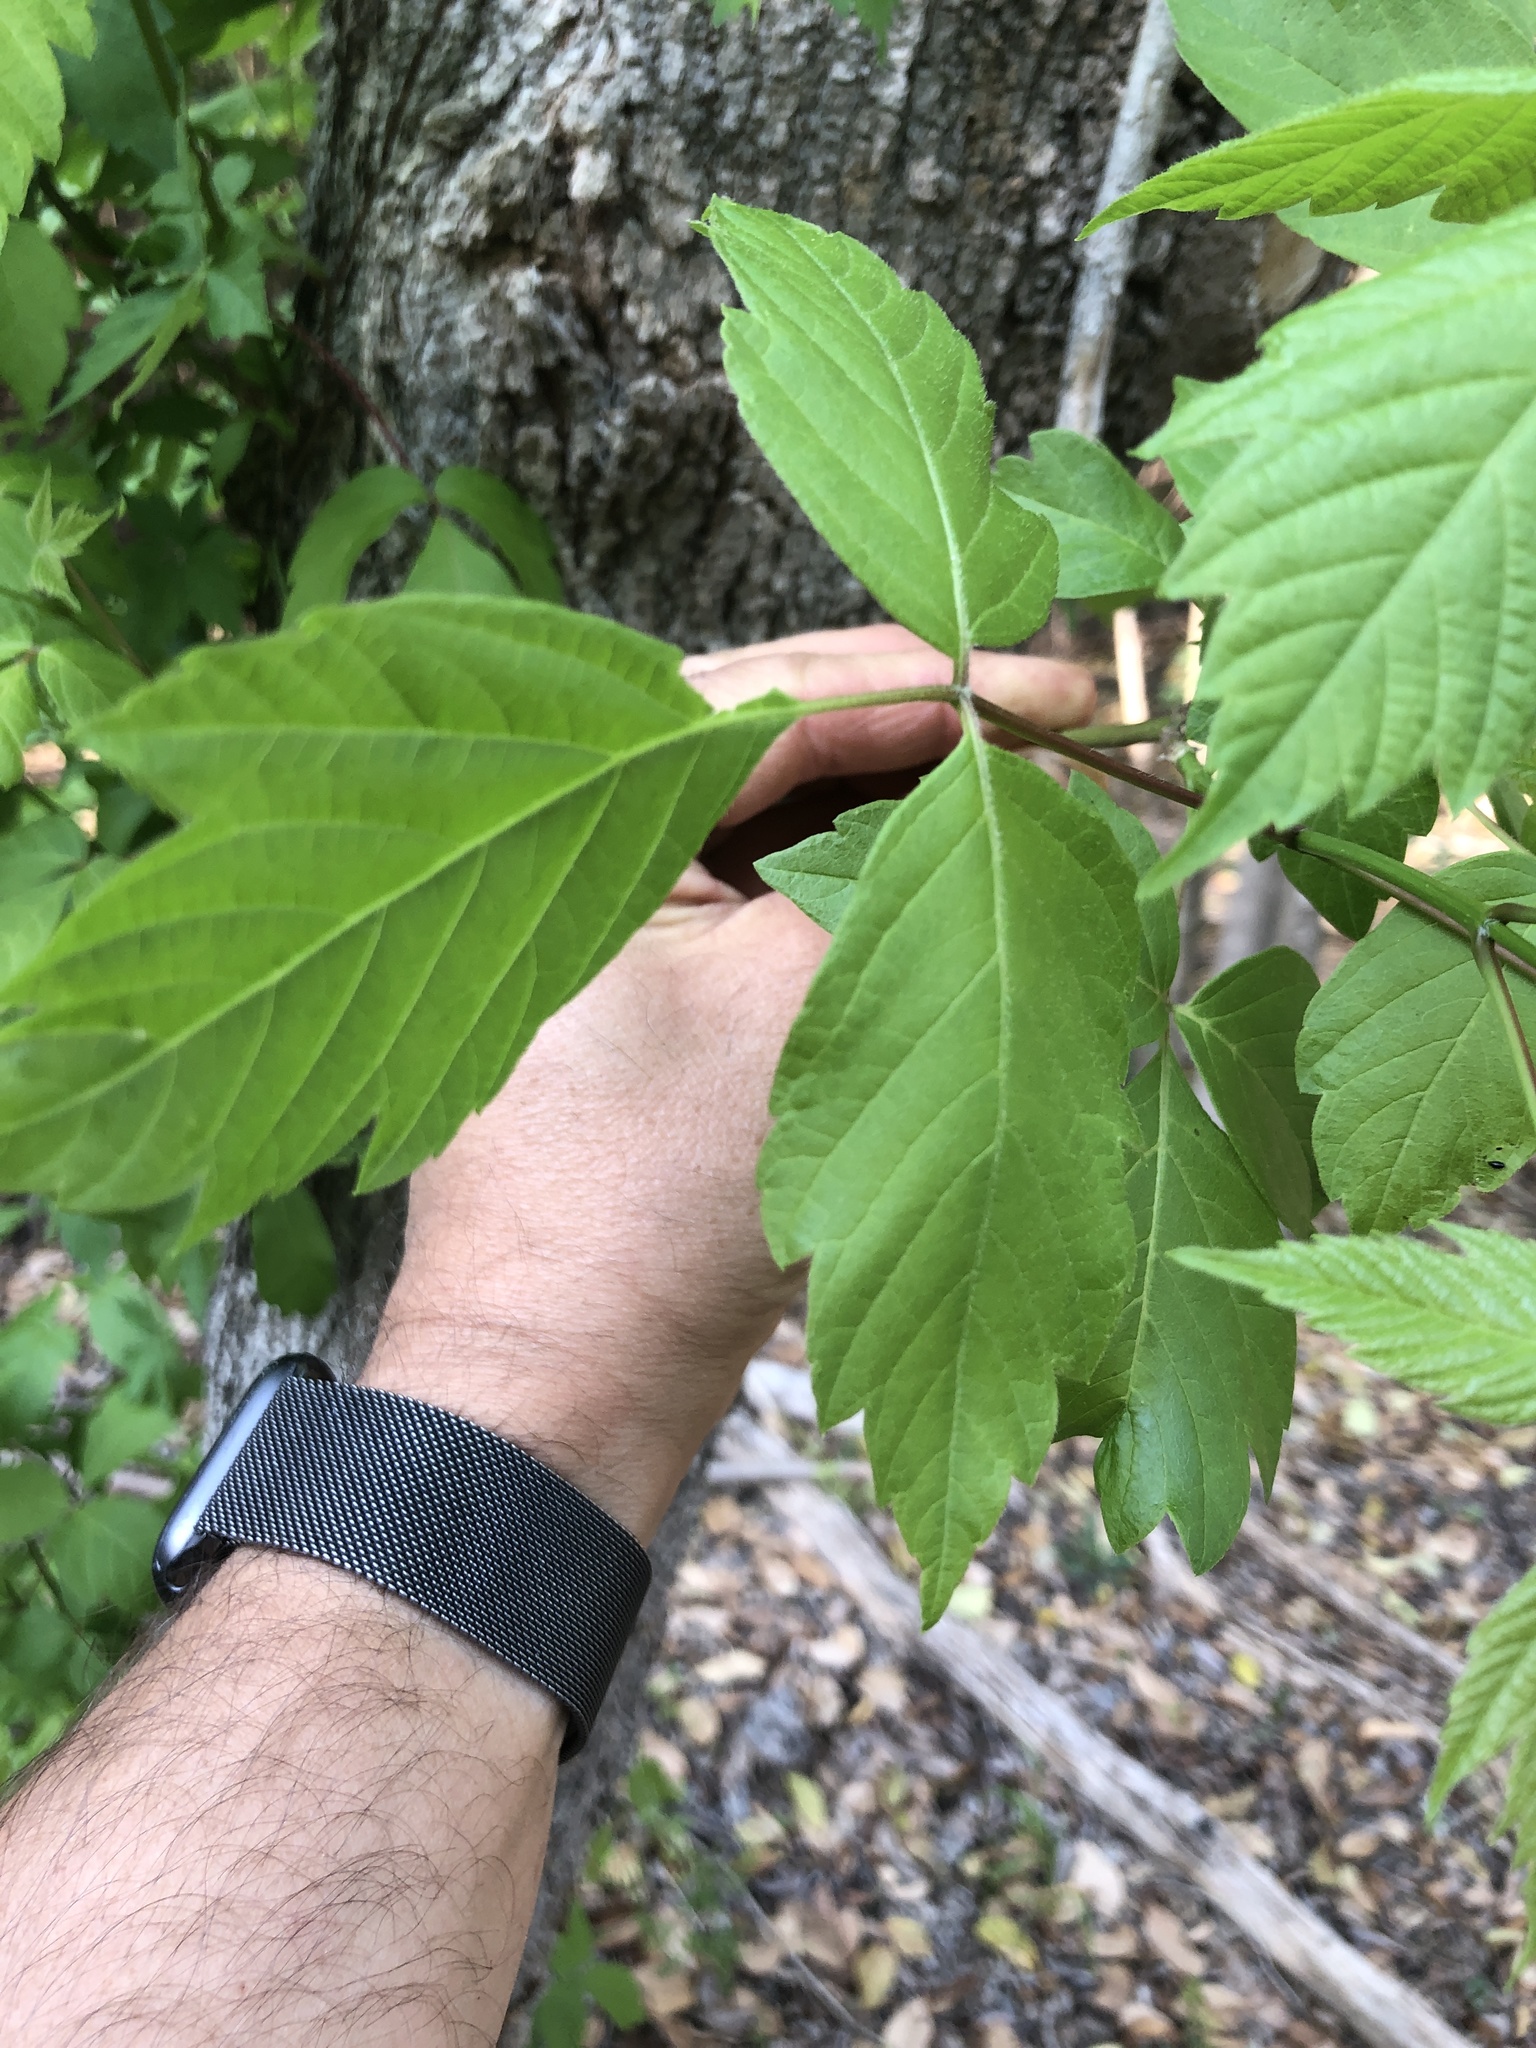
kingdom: Plantae
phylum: Tracheophyta
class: Magnoliopsida
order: Sapindales
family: Sapindaceae
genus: Acer
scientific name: Acer negundo
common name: Ashleaf maple
